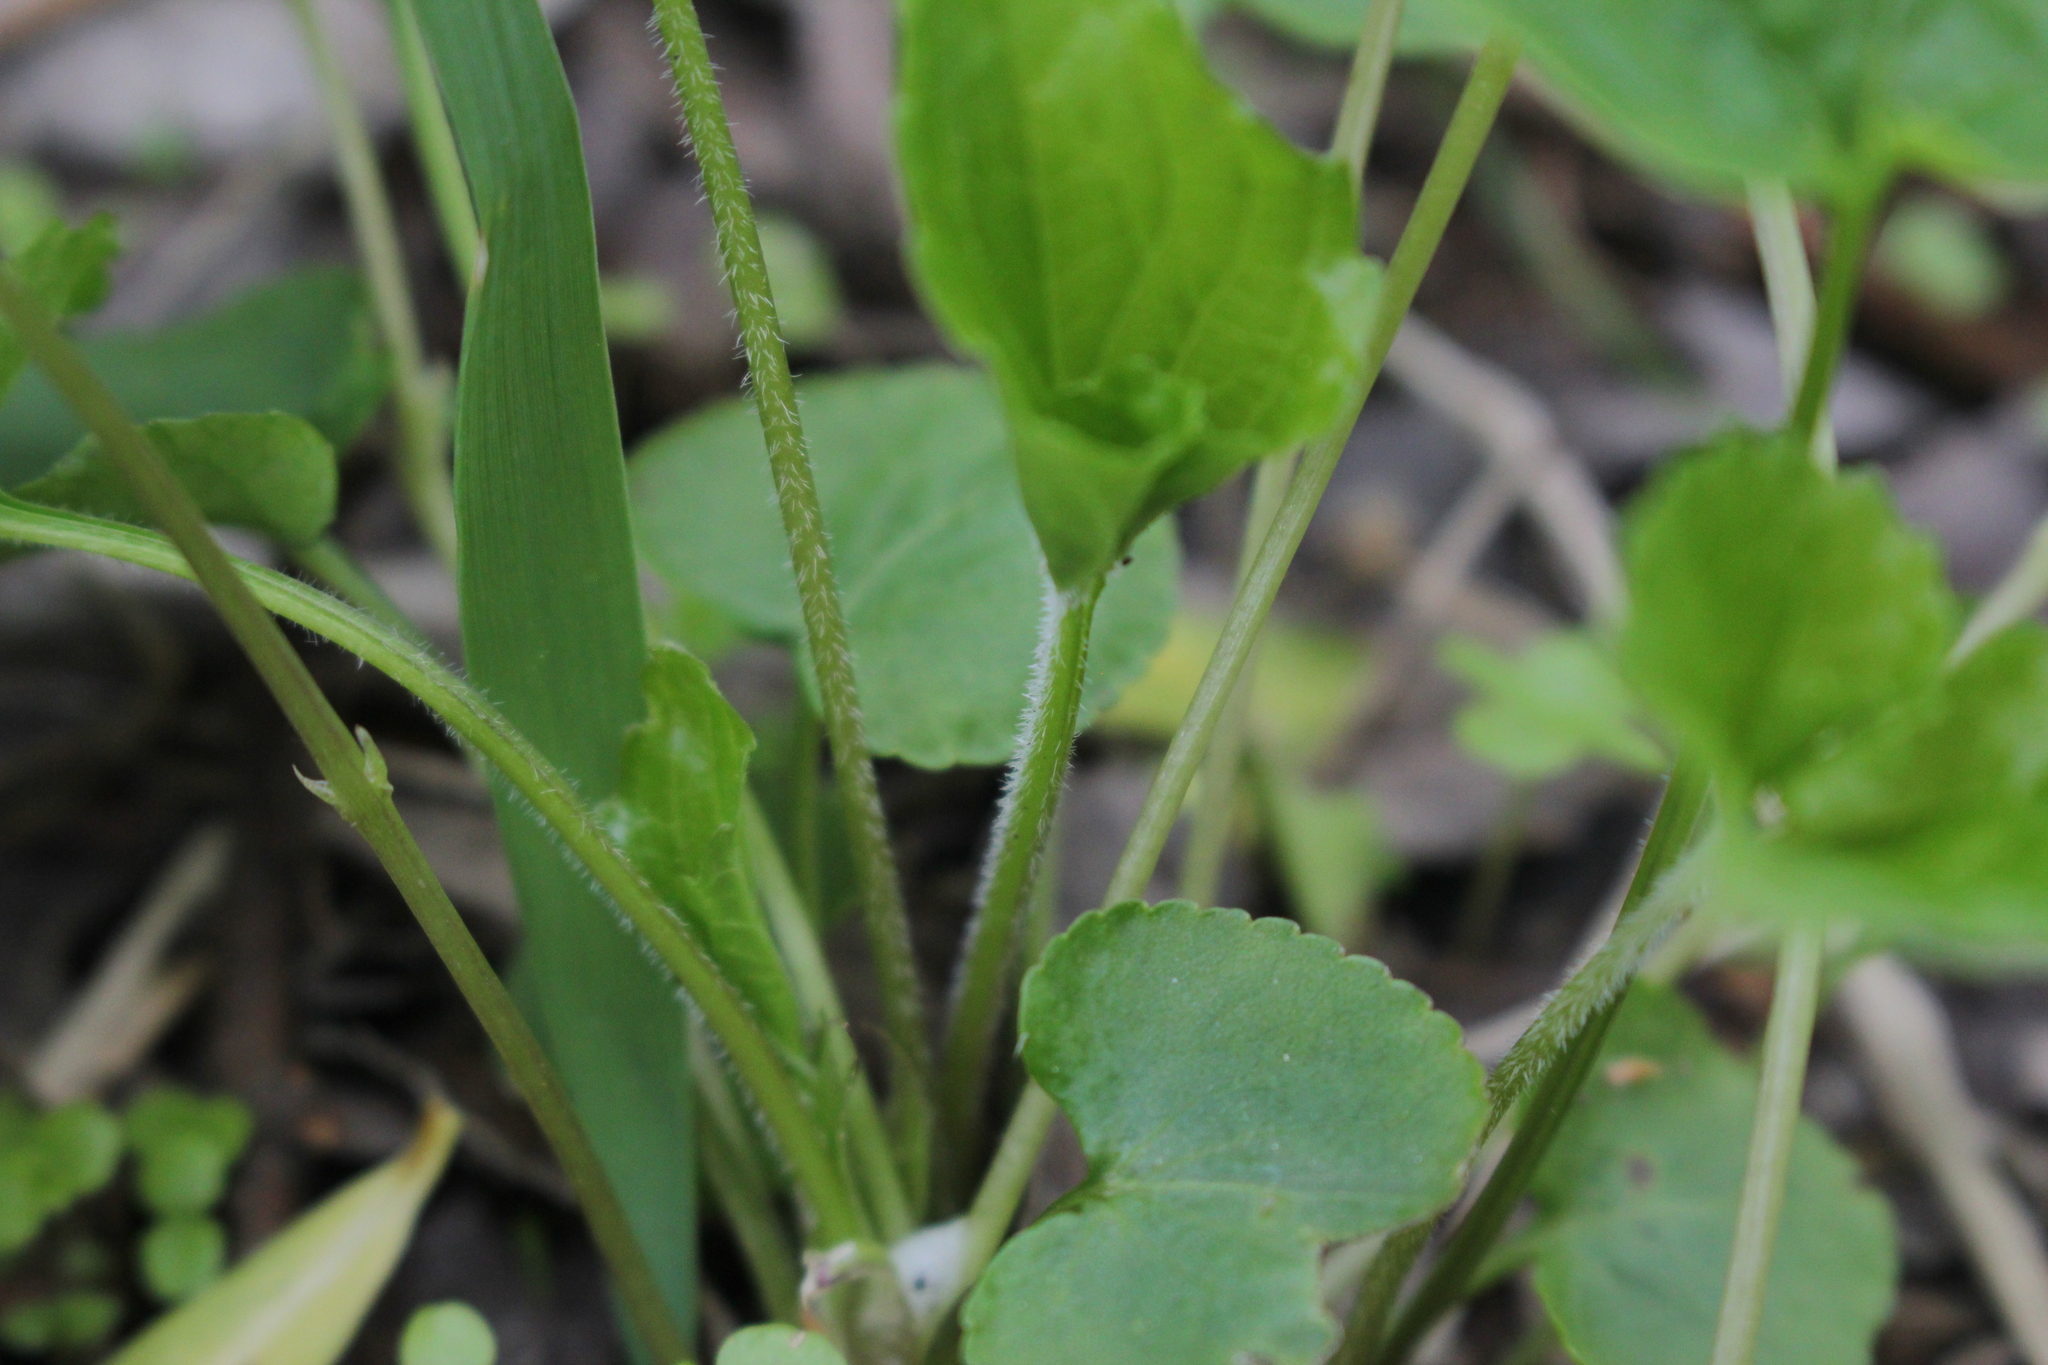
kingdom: Plantae
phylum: Tracheophyta
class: Magnoliopsida
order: Malpighiales
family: Violaceae
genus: Viola
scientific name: Viola sororia
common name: Dooryard violet
